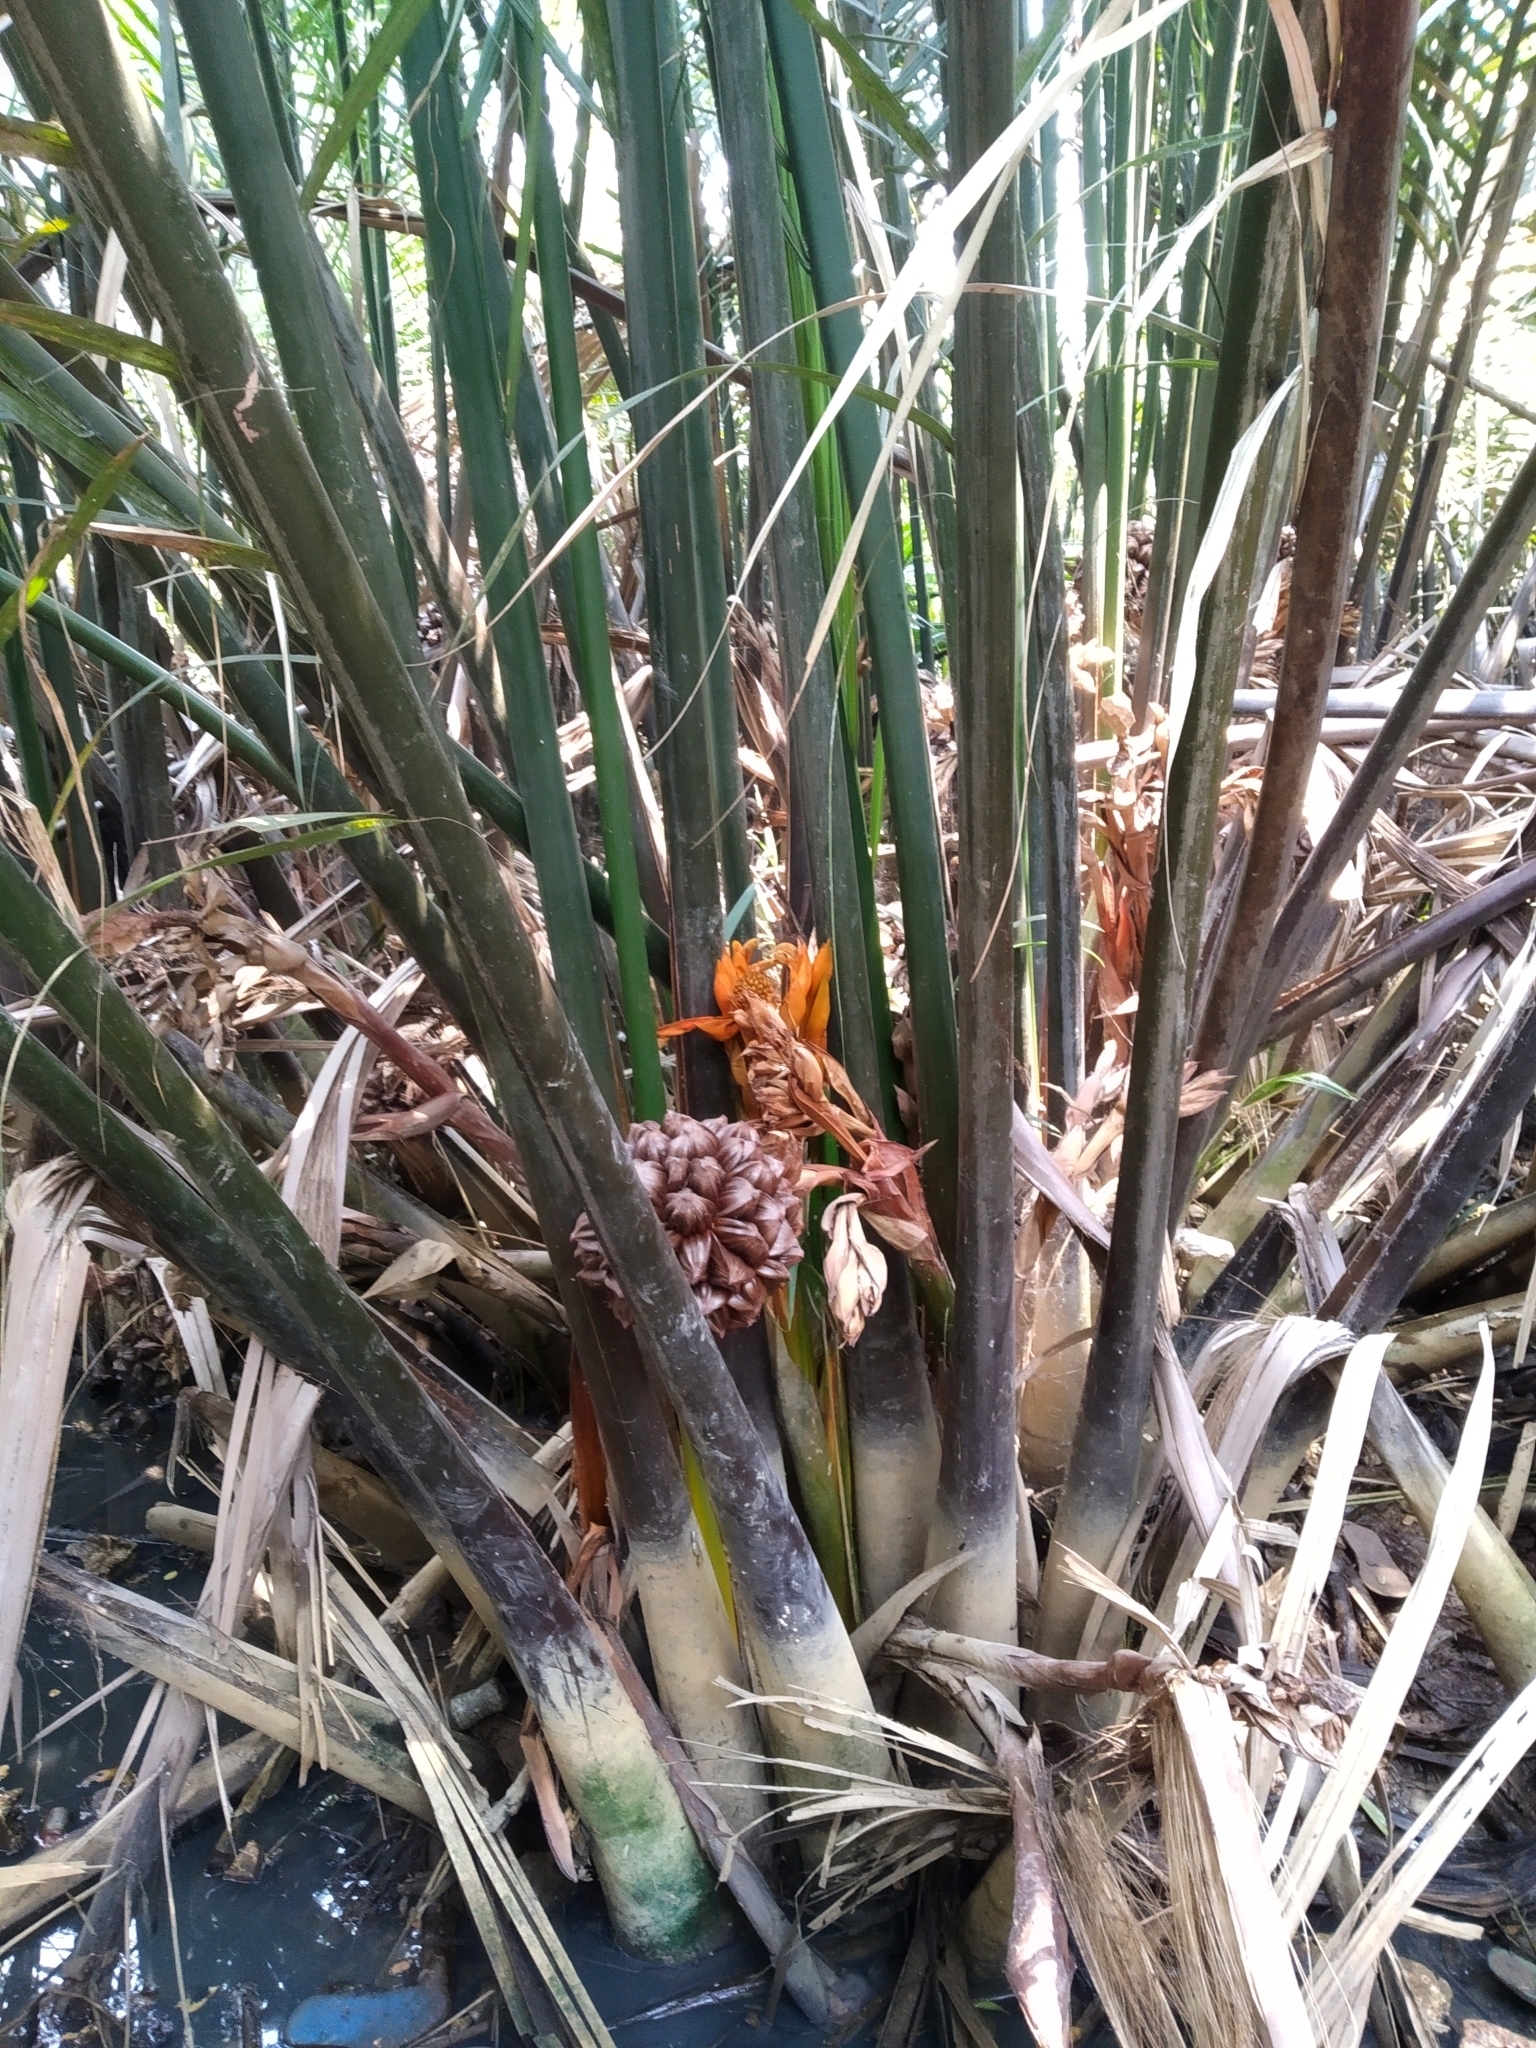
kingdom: Plantae
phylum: Tracheophyta
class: Liliopsida
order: Arecales
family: Arecaceae
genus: Nypa
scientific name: Nypa fruticans
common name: Mangrove palm
